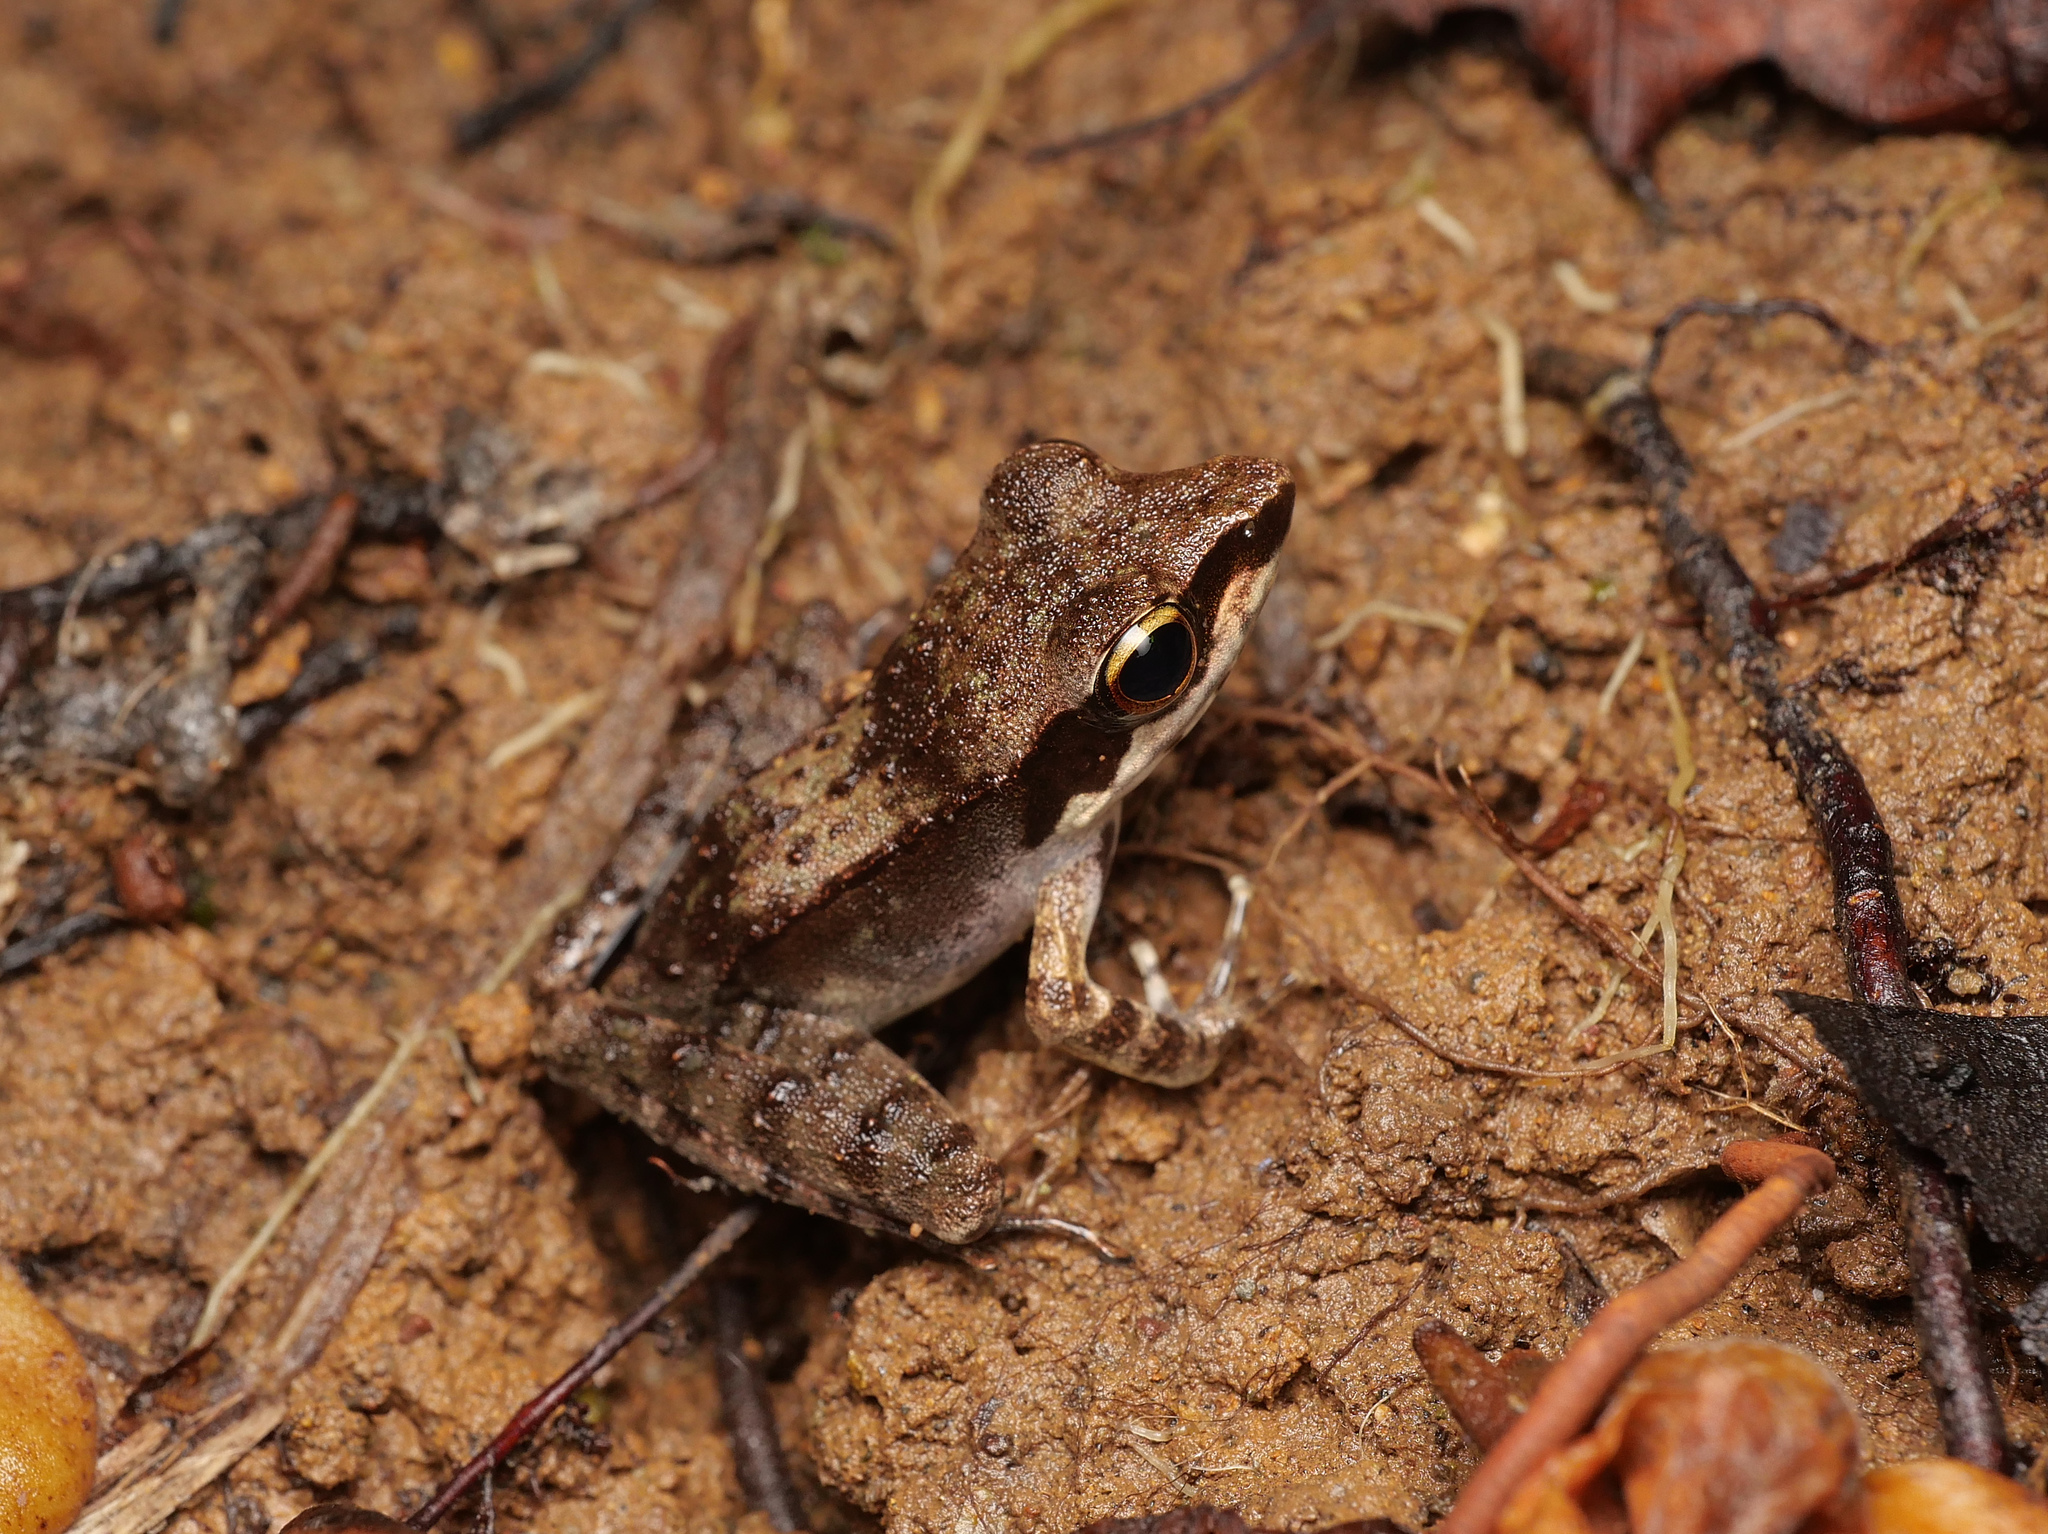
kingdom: Animalia
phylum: Chordata
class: Amphibia
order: Anura
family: Ranidae
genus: Papurana
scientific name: Papurana papua
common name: Papua frog
